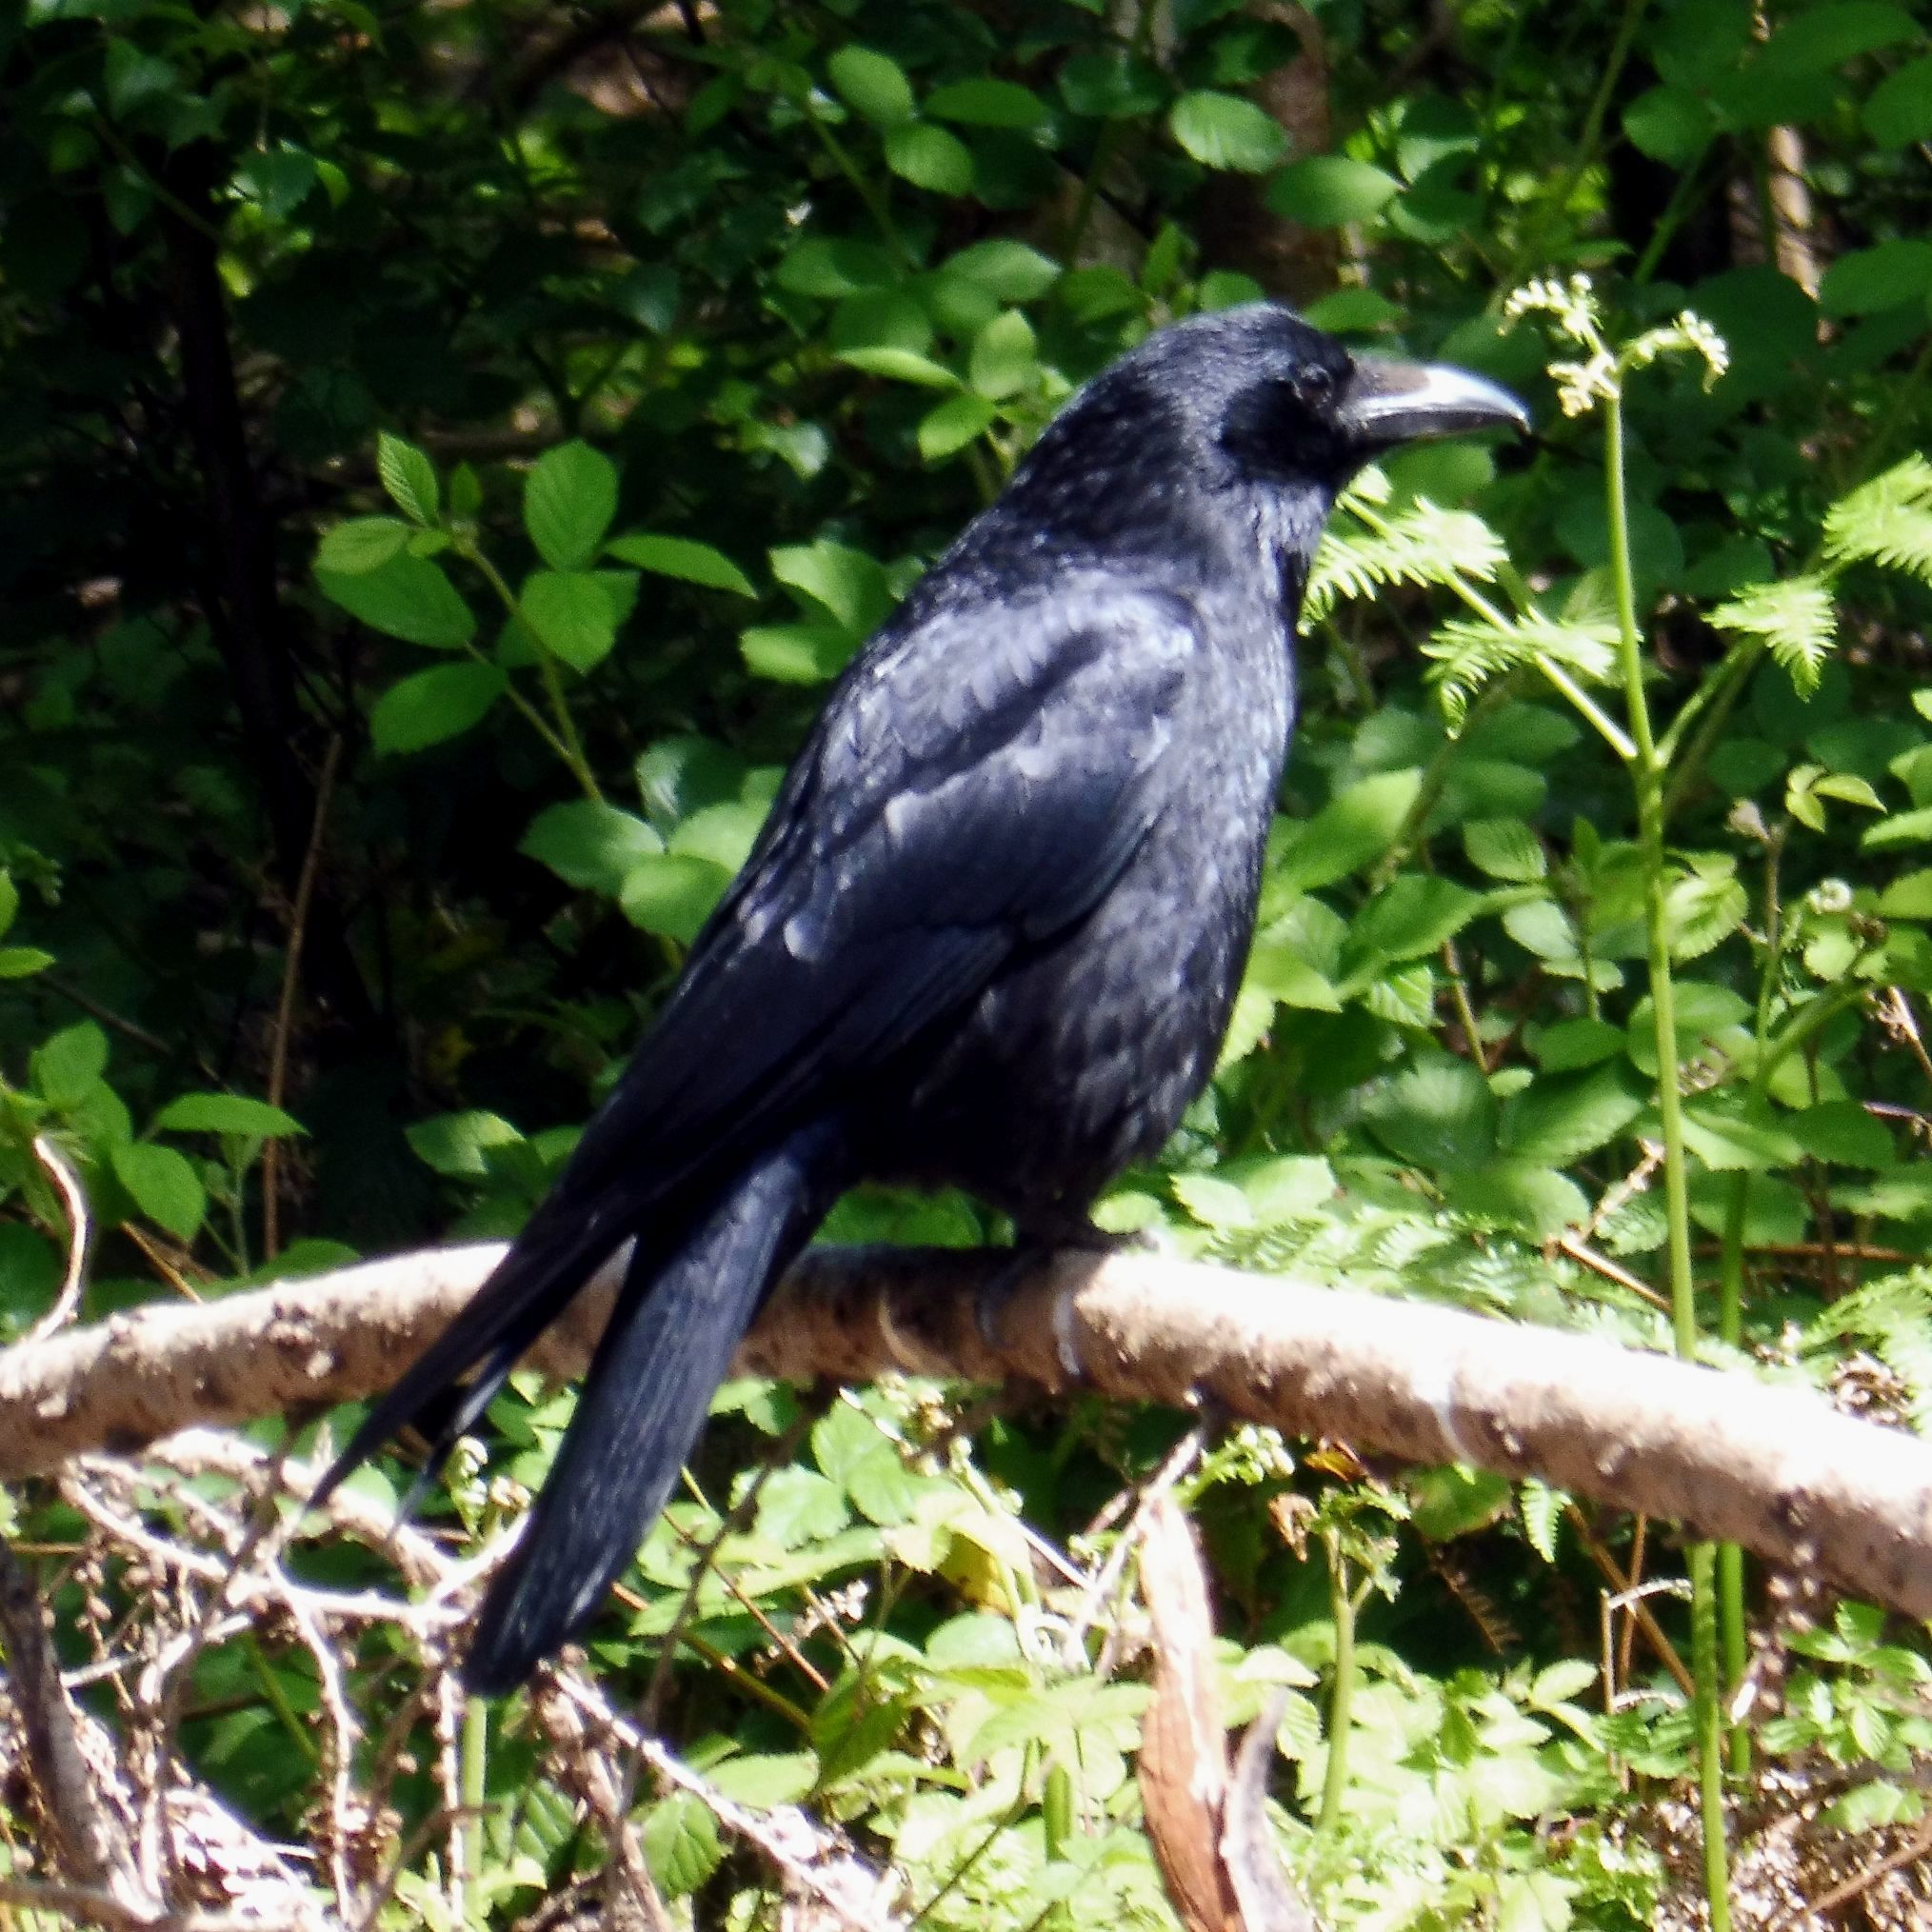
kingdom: Animalia
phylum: Chordata
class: Aves
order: Passeriformes
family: Corvidae
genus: Corvus
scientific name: Corvus corone
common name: Carrion crow
